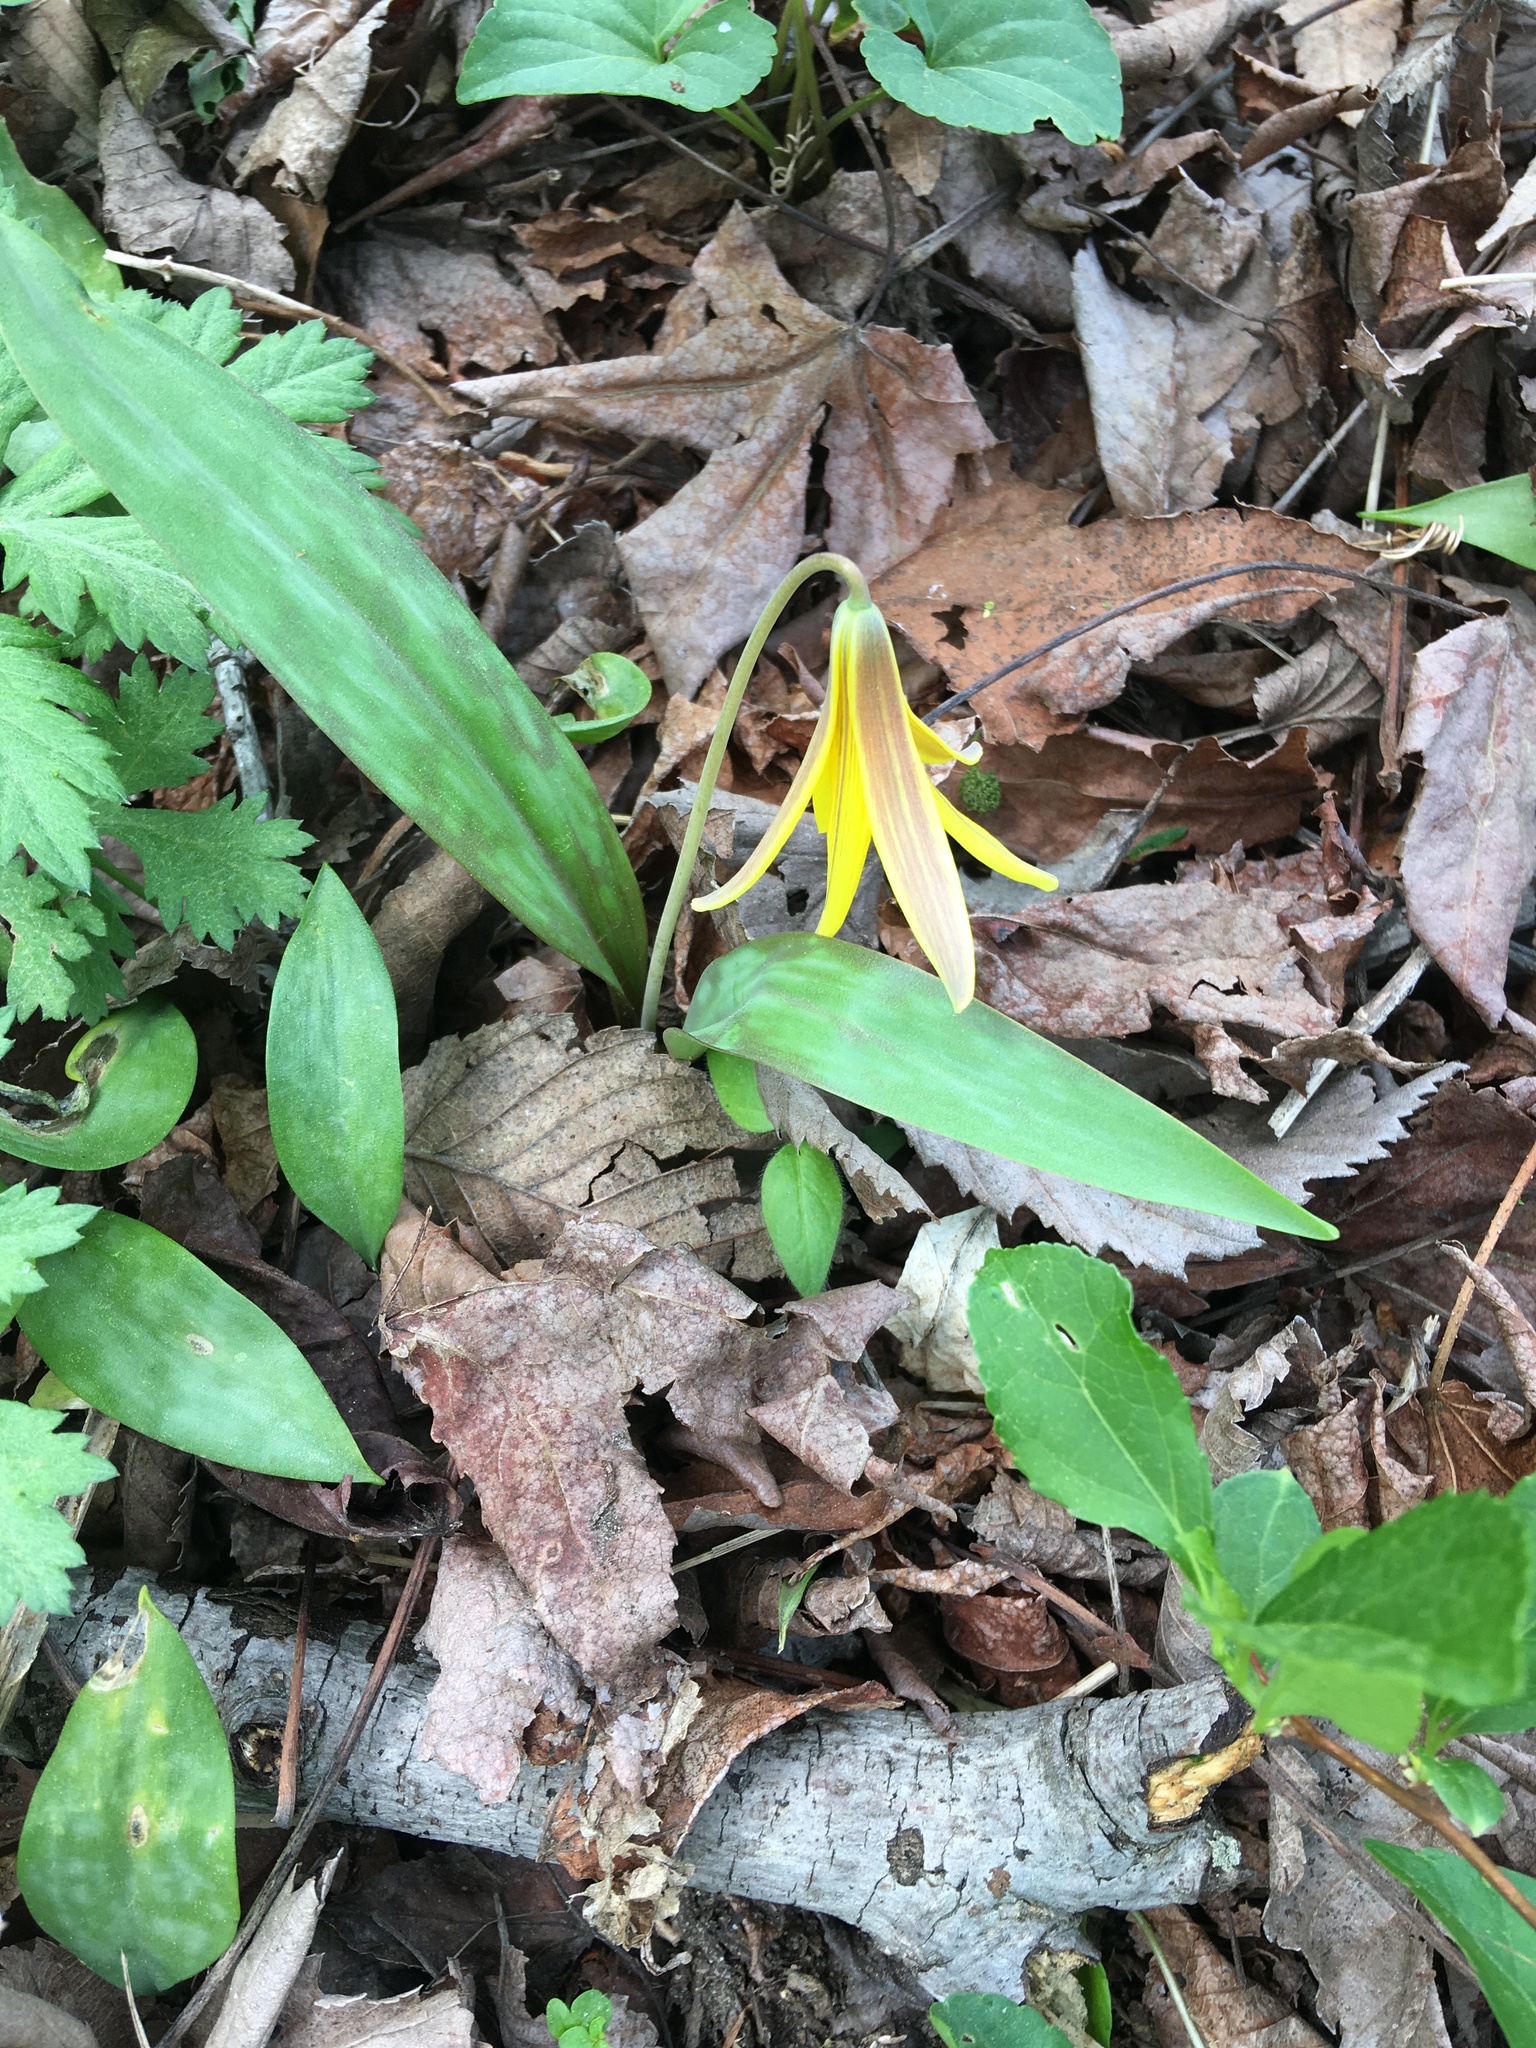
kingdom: Plantae
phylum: Tracheophyta
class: Liliopsida
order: Liliales
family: Liliaceae
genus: Erythronium
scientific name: Erythronium americanum
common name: Yellow adder's-tongue
